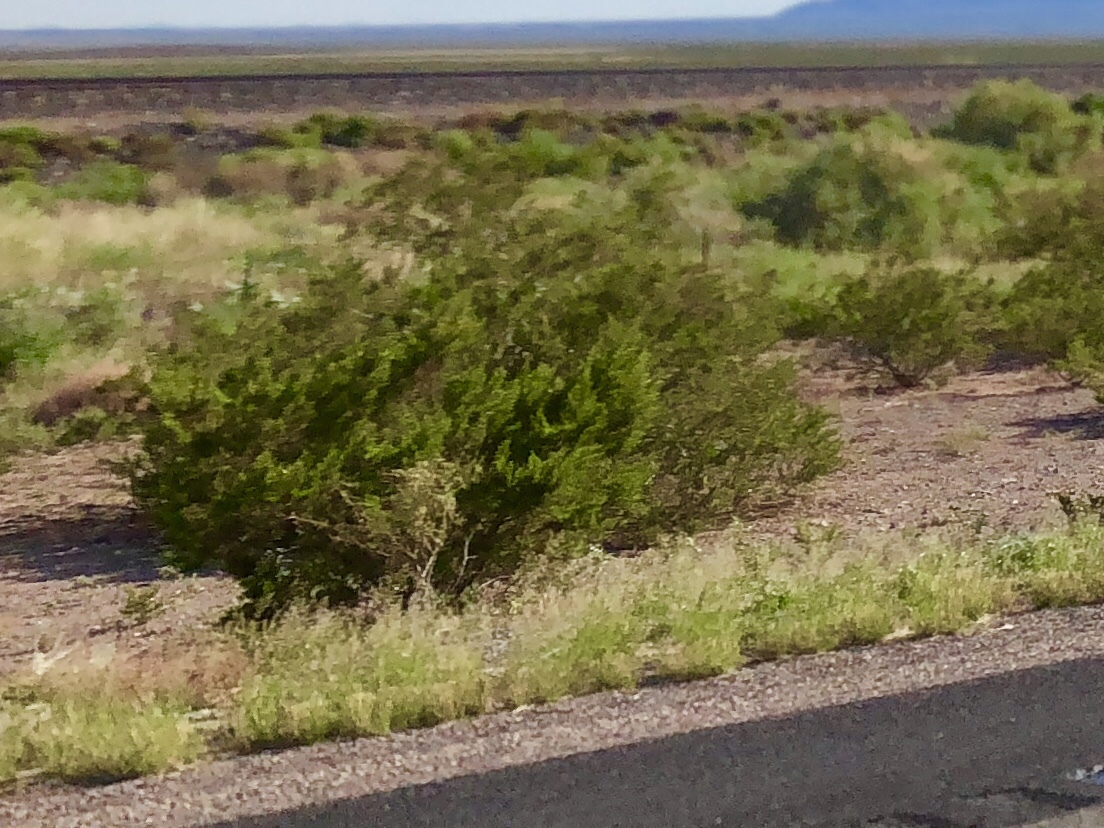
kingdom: Plantae
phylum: Tracheophyta
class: Magnoliopsida
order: Zygophyllales
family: Zygophyllaceae
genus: Larrea
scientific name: Larrea tridentata
